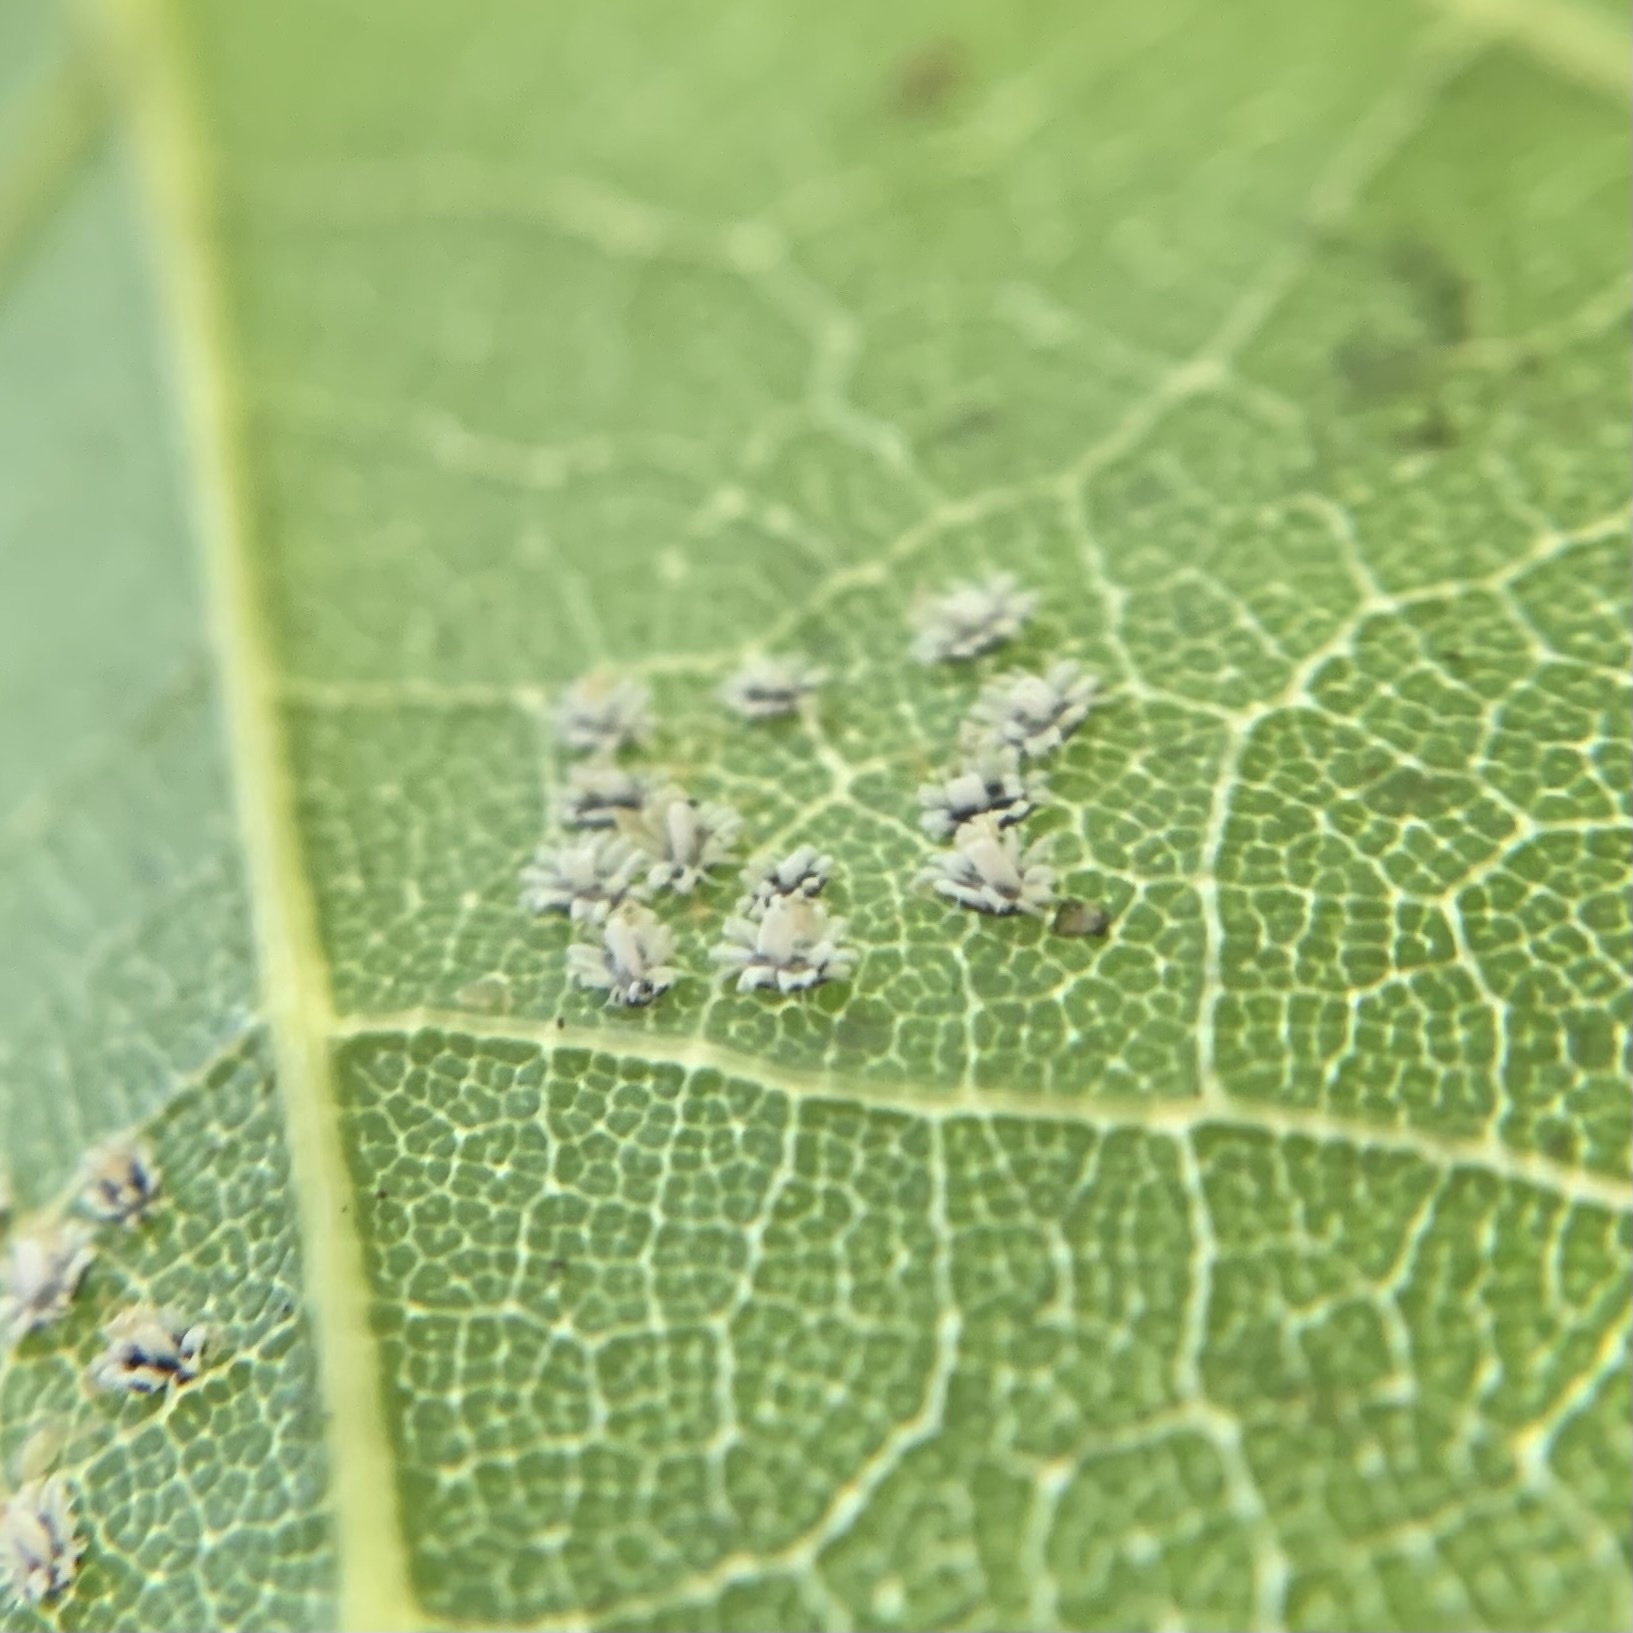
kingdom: Animalia
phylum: Arthropoda
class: Insecta
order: Hemiptera
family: Aleyrodidae
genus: Aleuroplatus
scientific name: Aleuroplatus coronata
